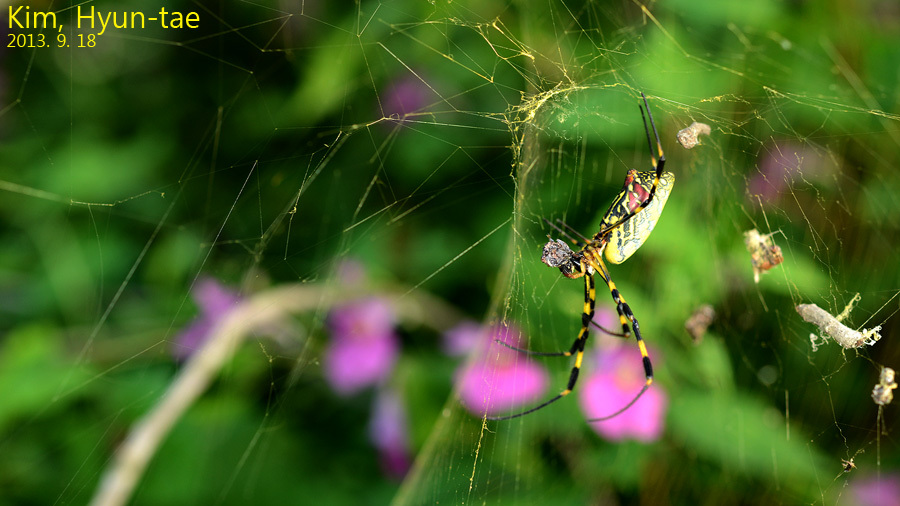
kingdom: Animalia
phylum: Arthropoda
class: Arachnida
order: Araneae
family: Araneidae
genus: Trichonephila
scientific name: Trichonephila clavata
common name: Jorō spider
